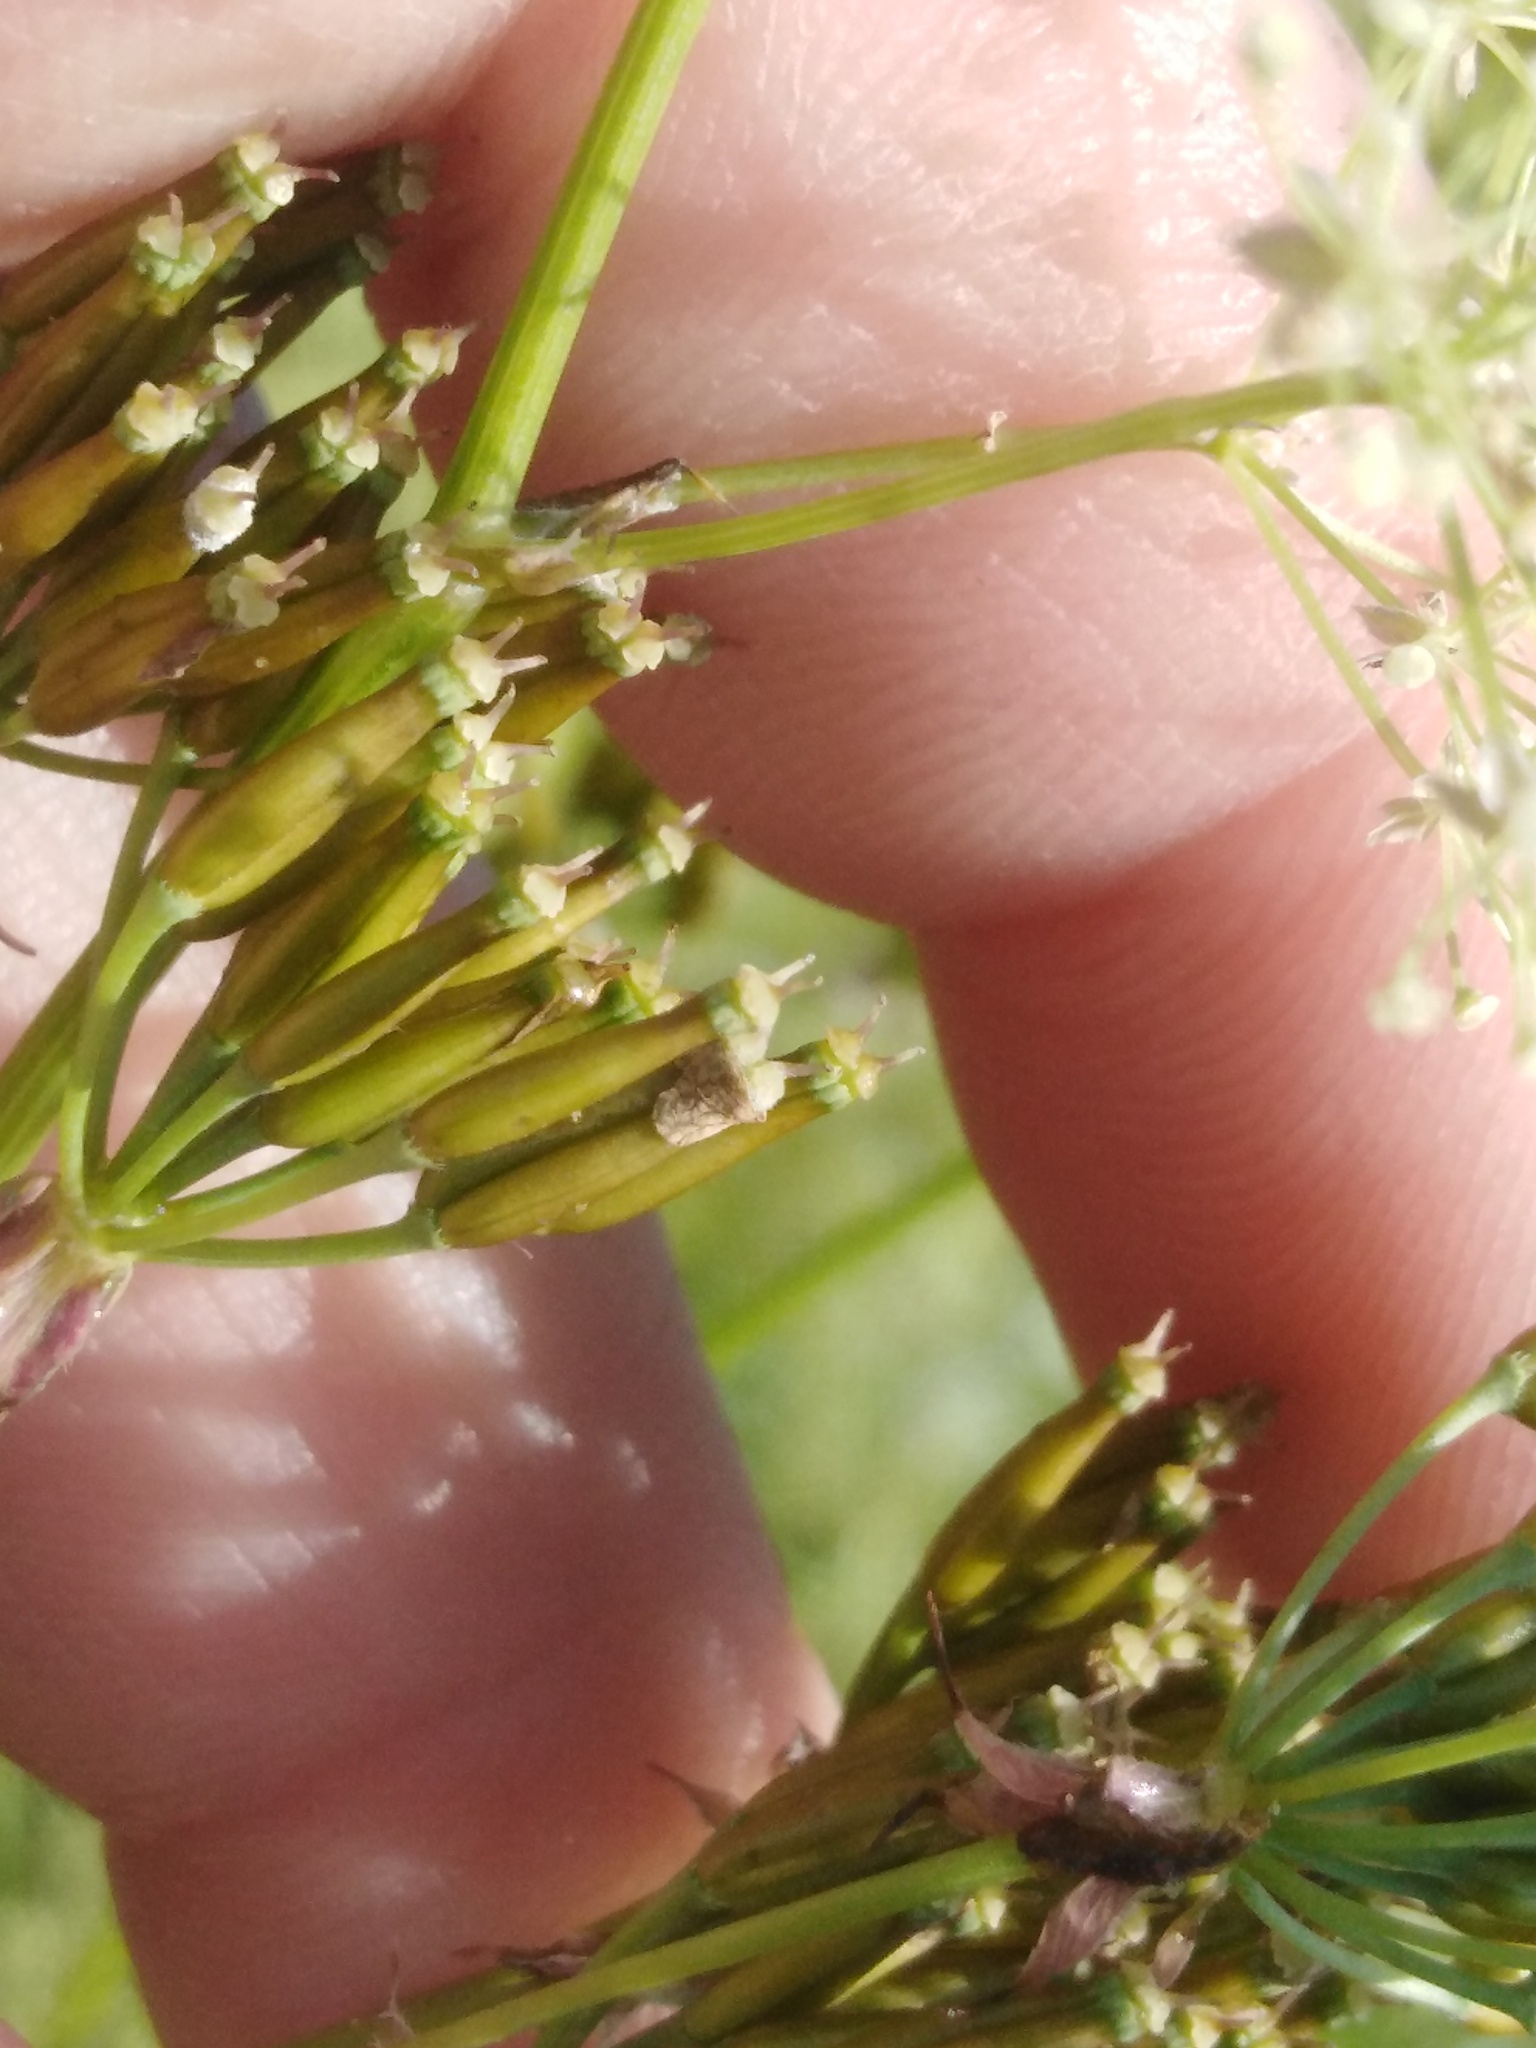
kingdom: Plantae
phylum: Tracheophyta
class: Magnoliopsida
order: Apiales
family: Apiaceae
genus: Anthriscus
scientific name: Anthriscus sylvestris
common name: Cow parsley
